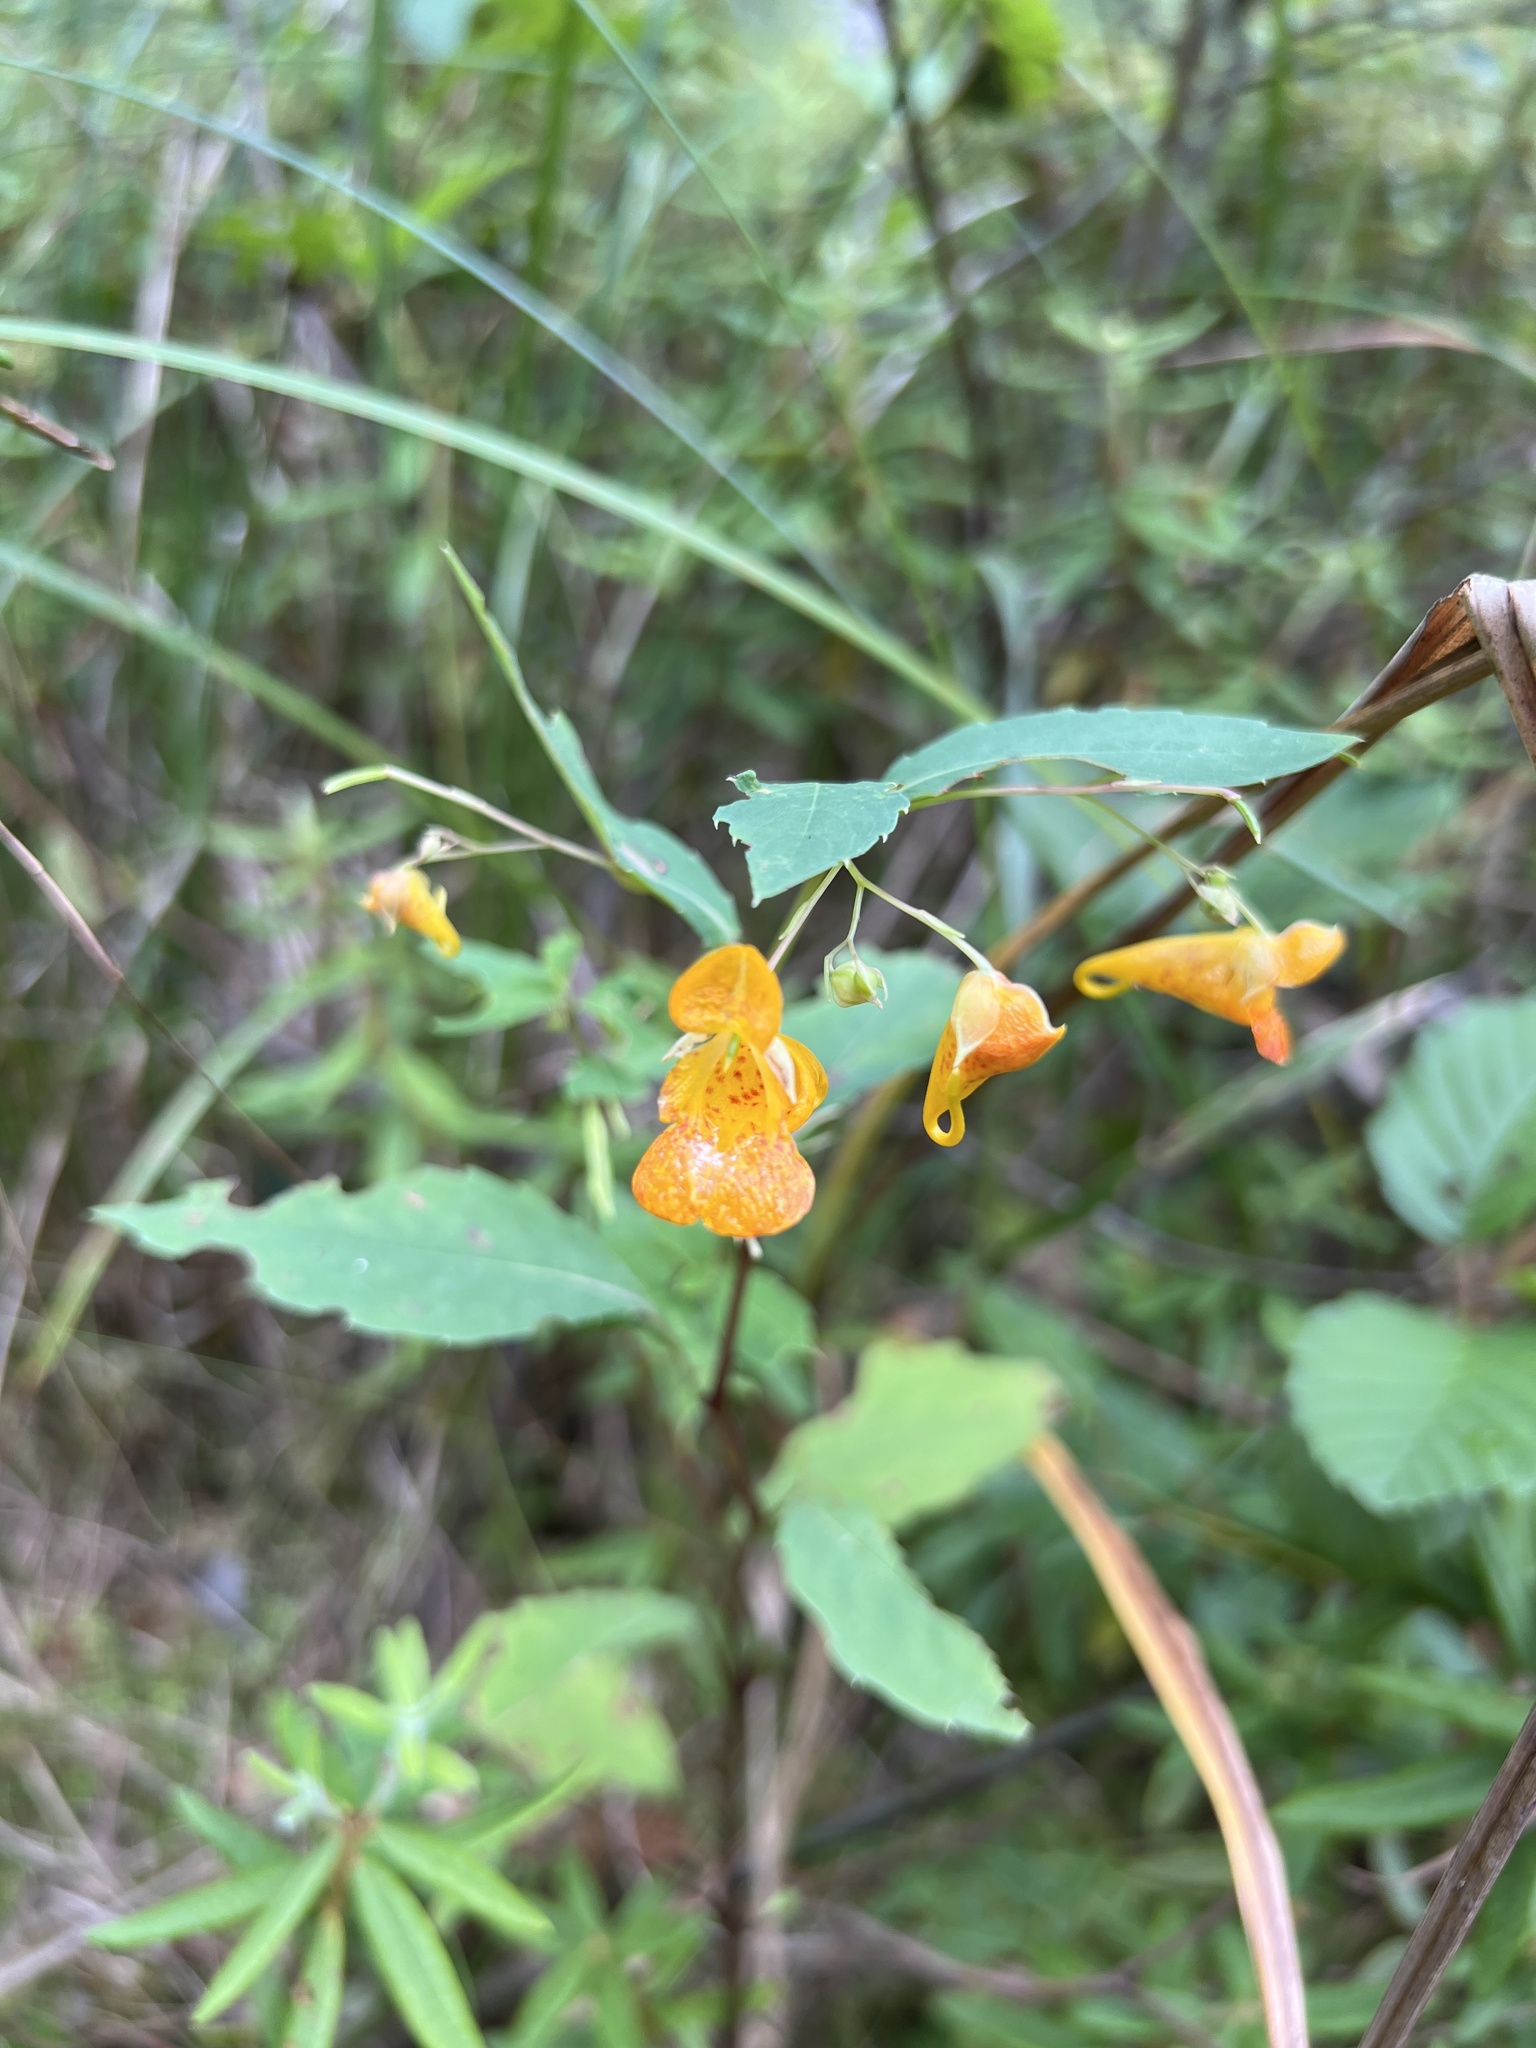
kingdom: Plantae
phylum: Tracheophyta
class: Magnoliopsida
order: Ericales
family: Balsaminaceae
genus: Impatiens
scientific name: Impatiens capensis
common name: Orange balsam
